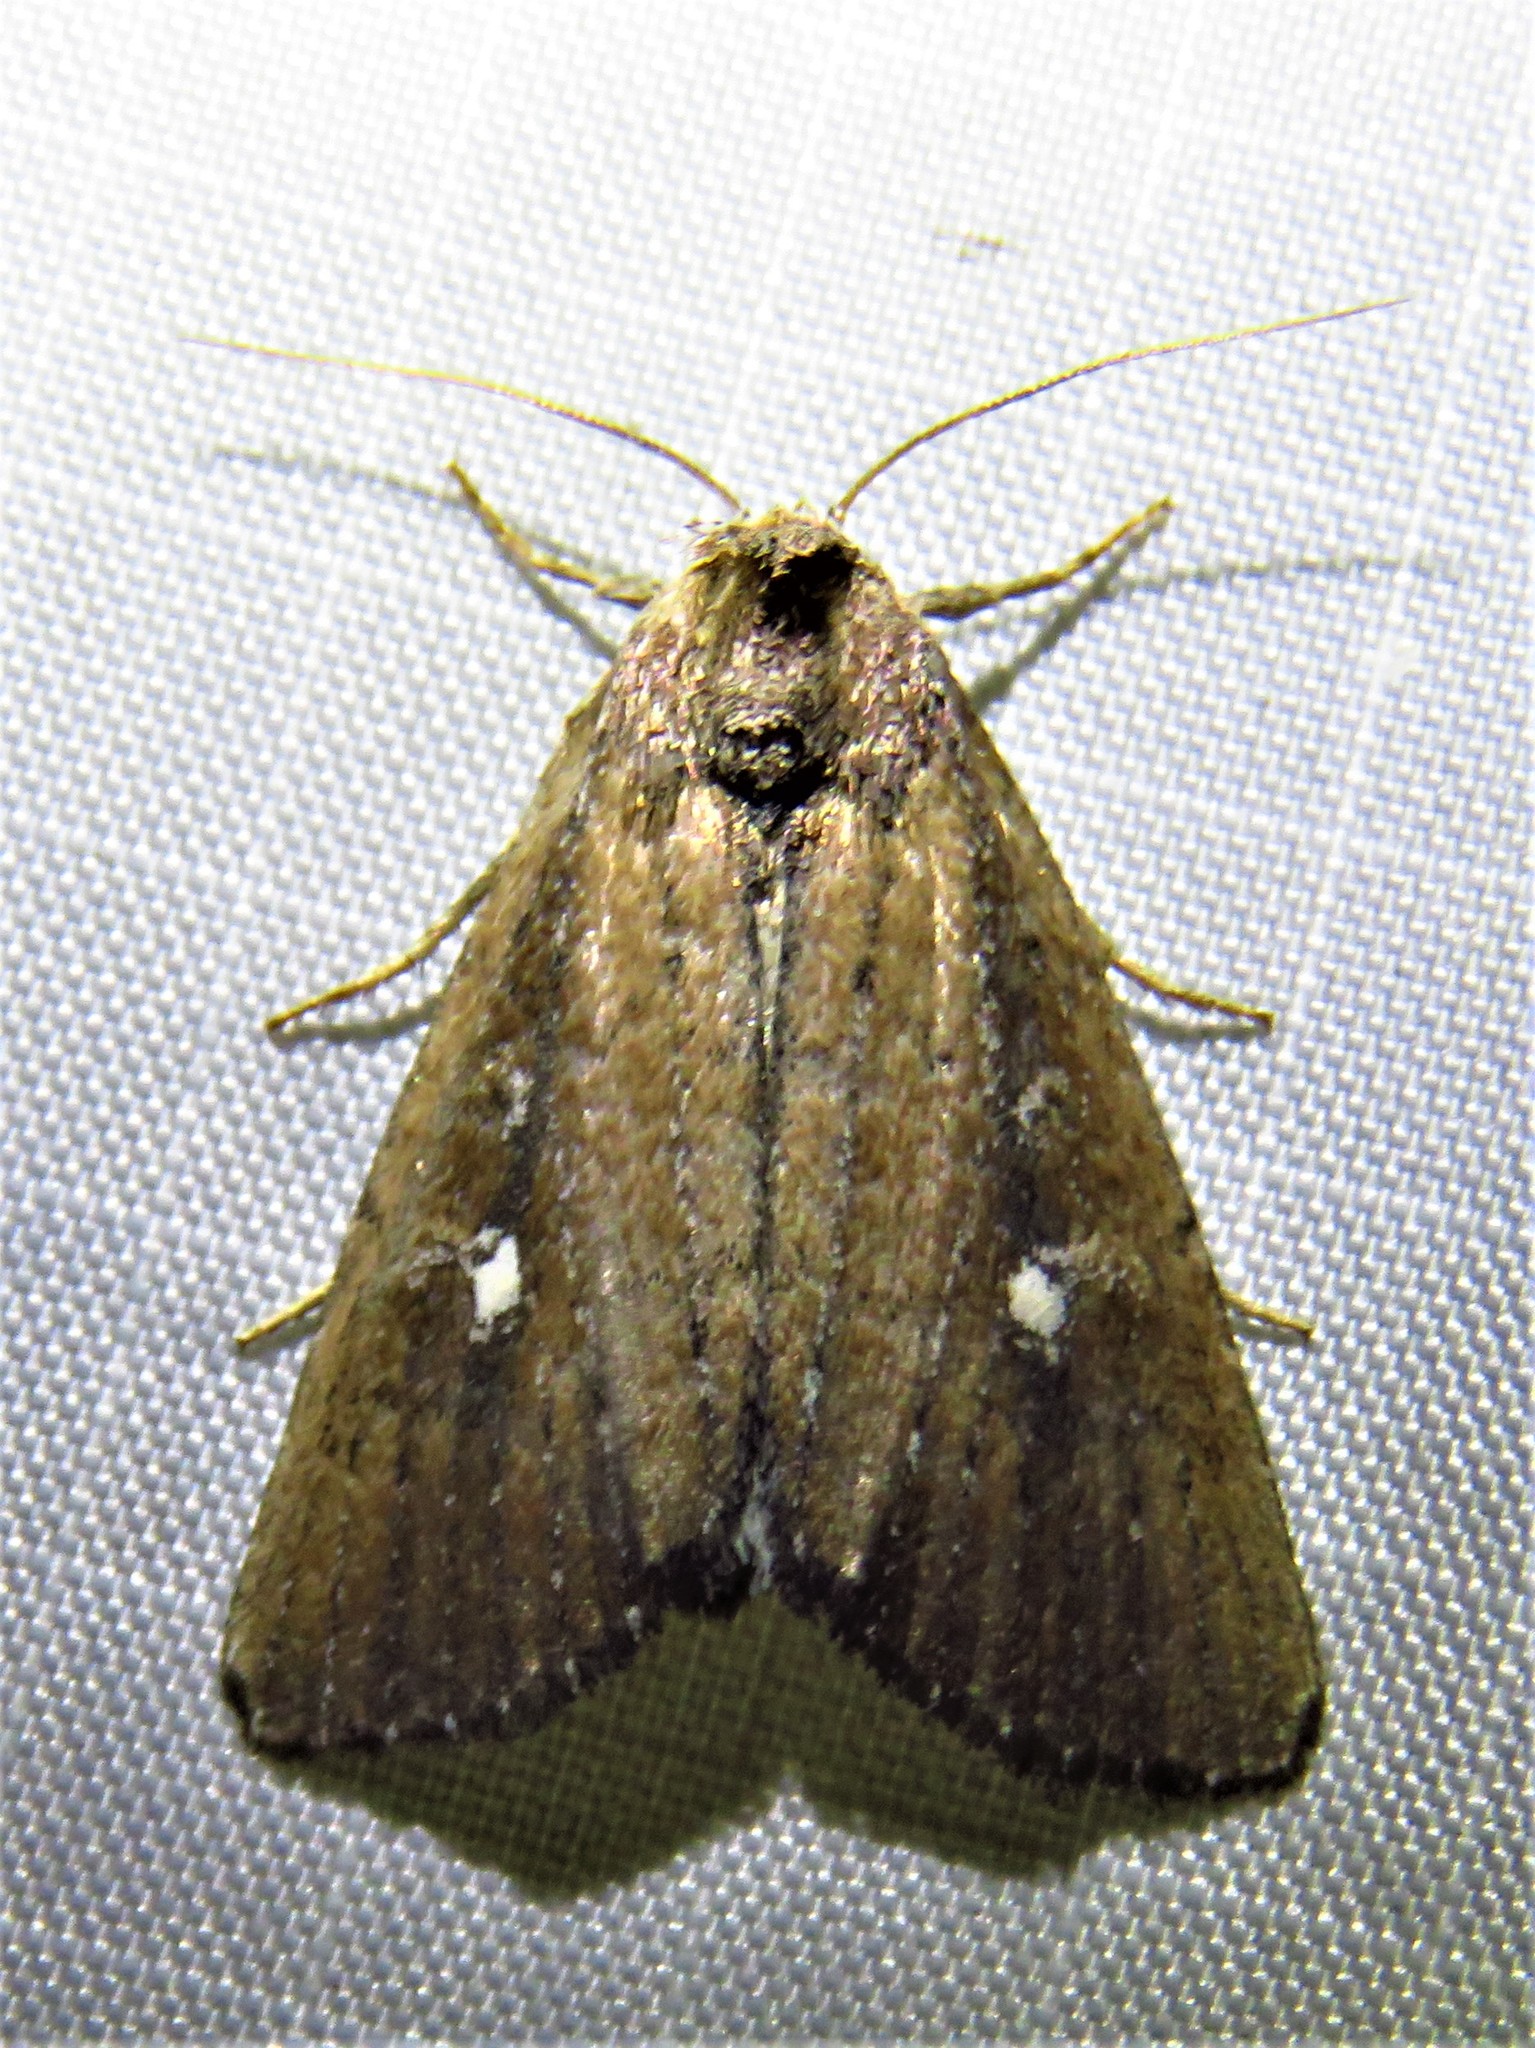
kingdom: Animalia
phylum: Arthropoda
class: Insecta
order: Lepidoptera
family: Noctuidae
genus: Condica
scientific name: Condica videns
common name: White-dotted groundling
